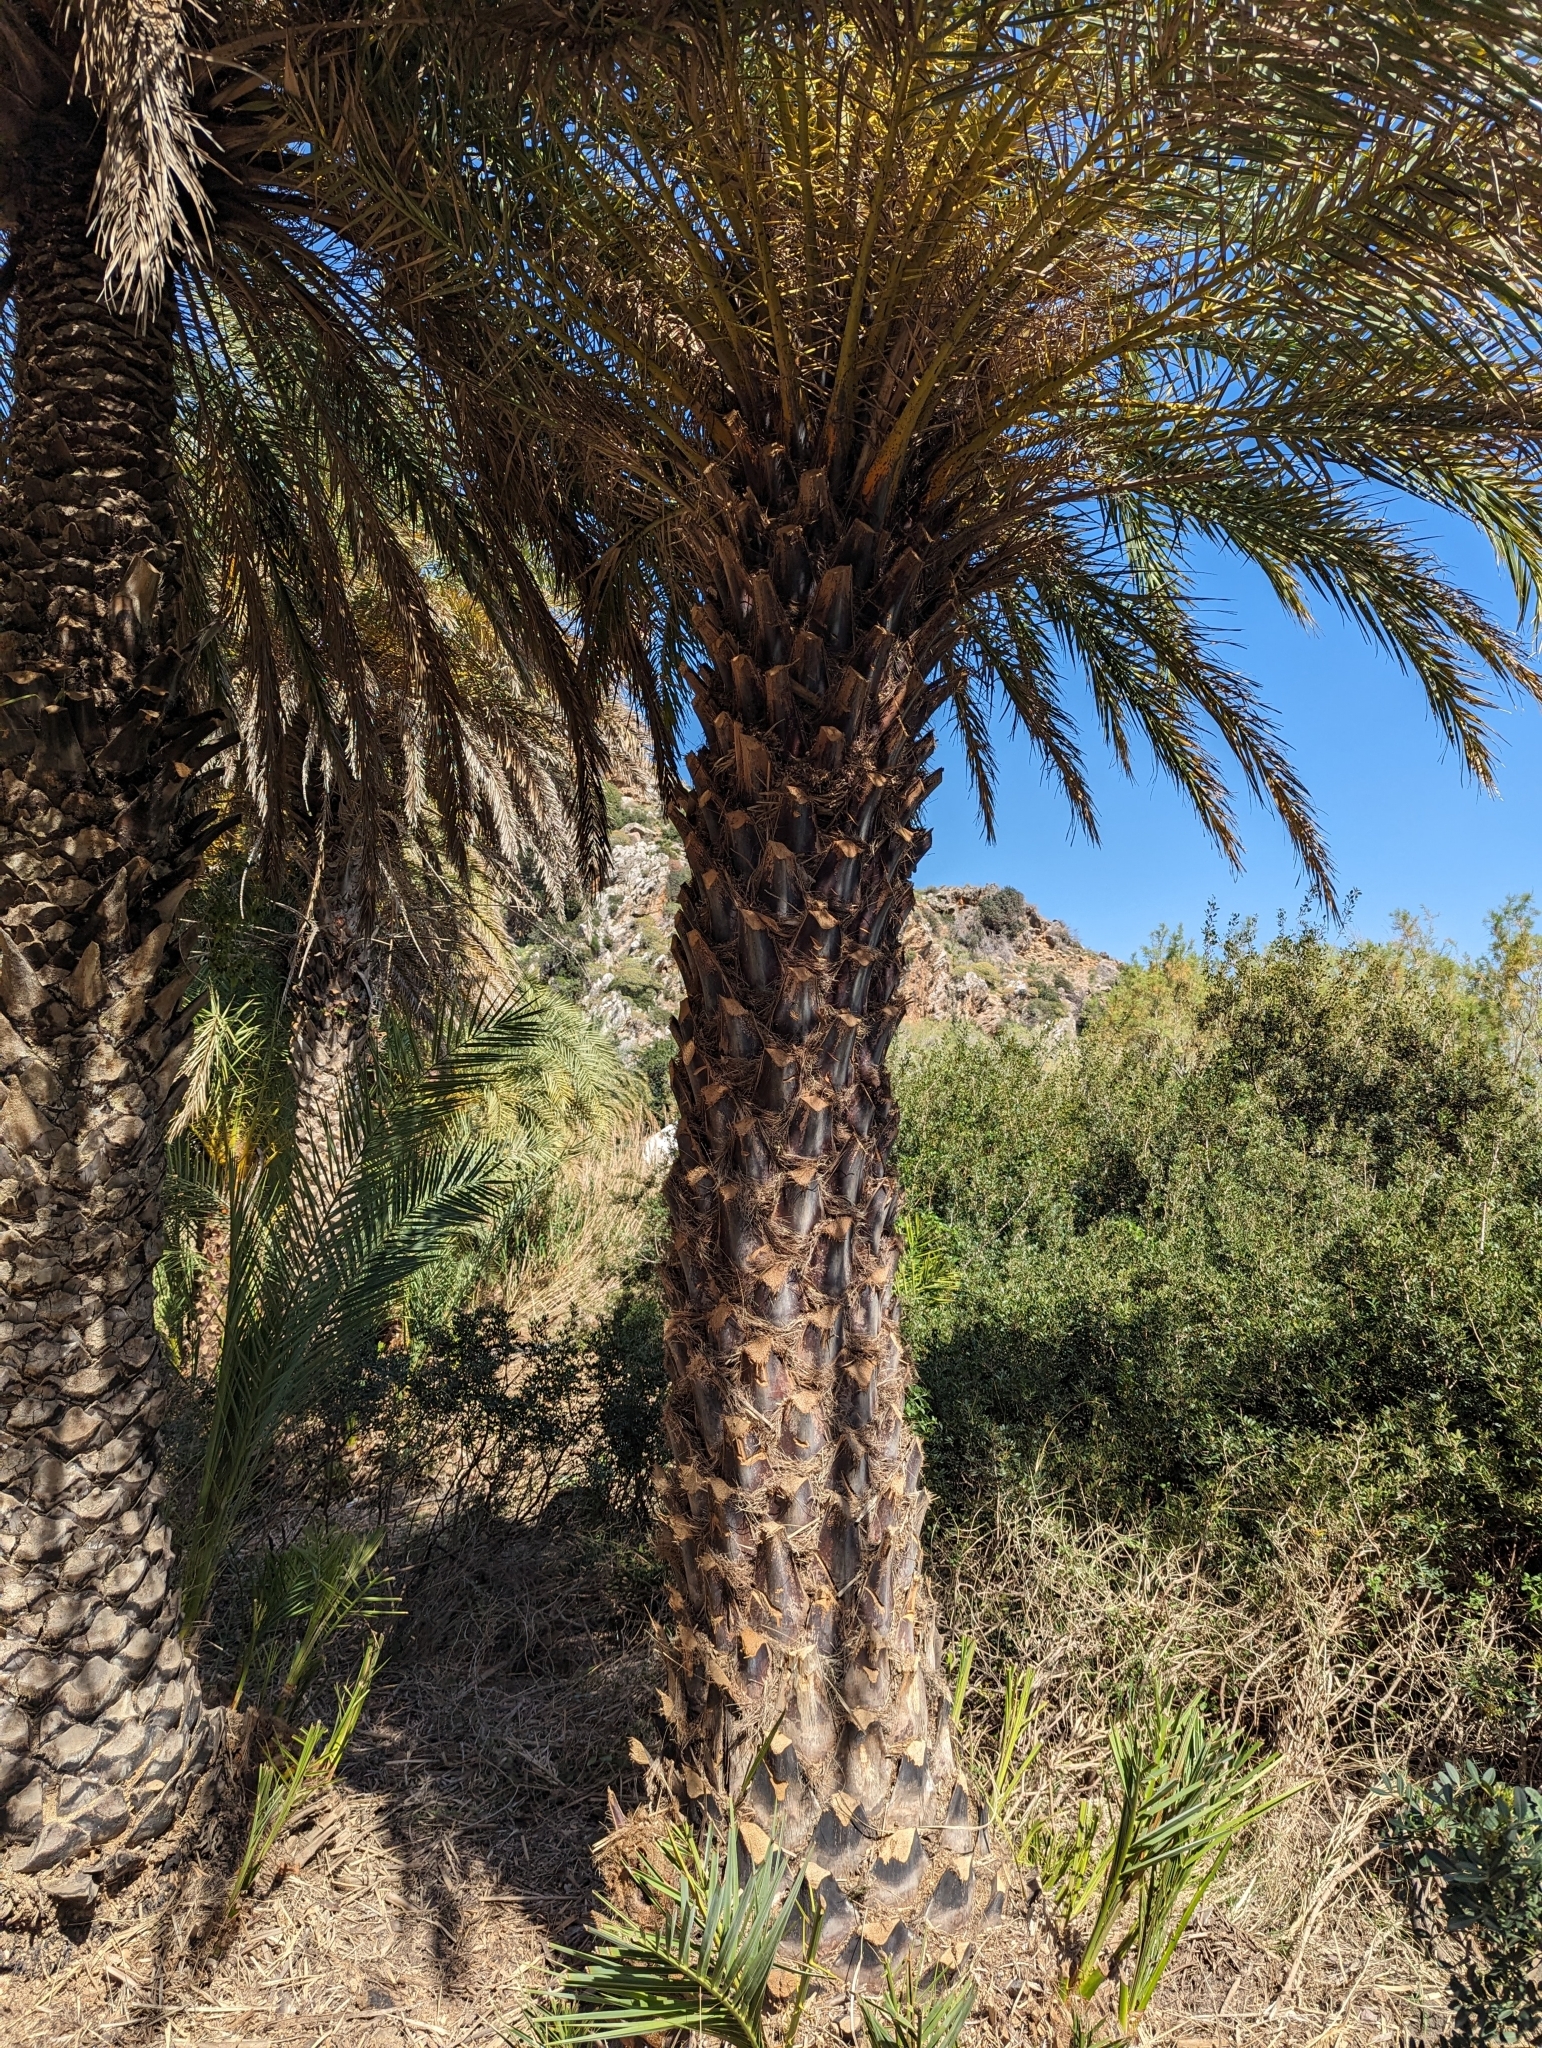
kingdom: Plantae
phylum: Tracheophyta
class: Liliopsida
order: Arecales
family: Arecaceae
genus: Phoenix
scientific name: Phoenix theophrasti
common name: Cretan date palm
